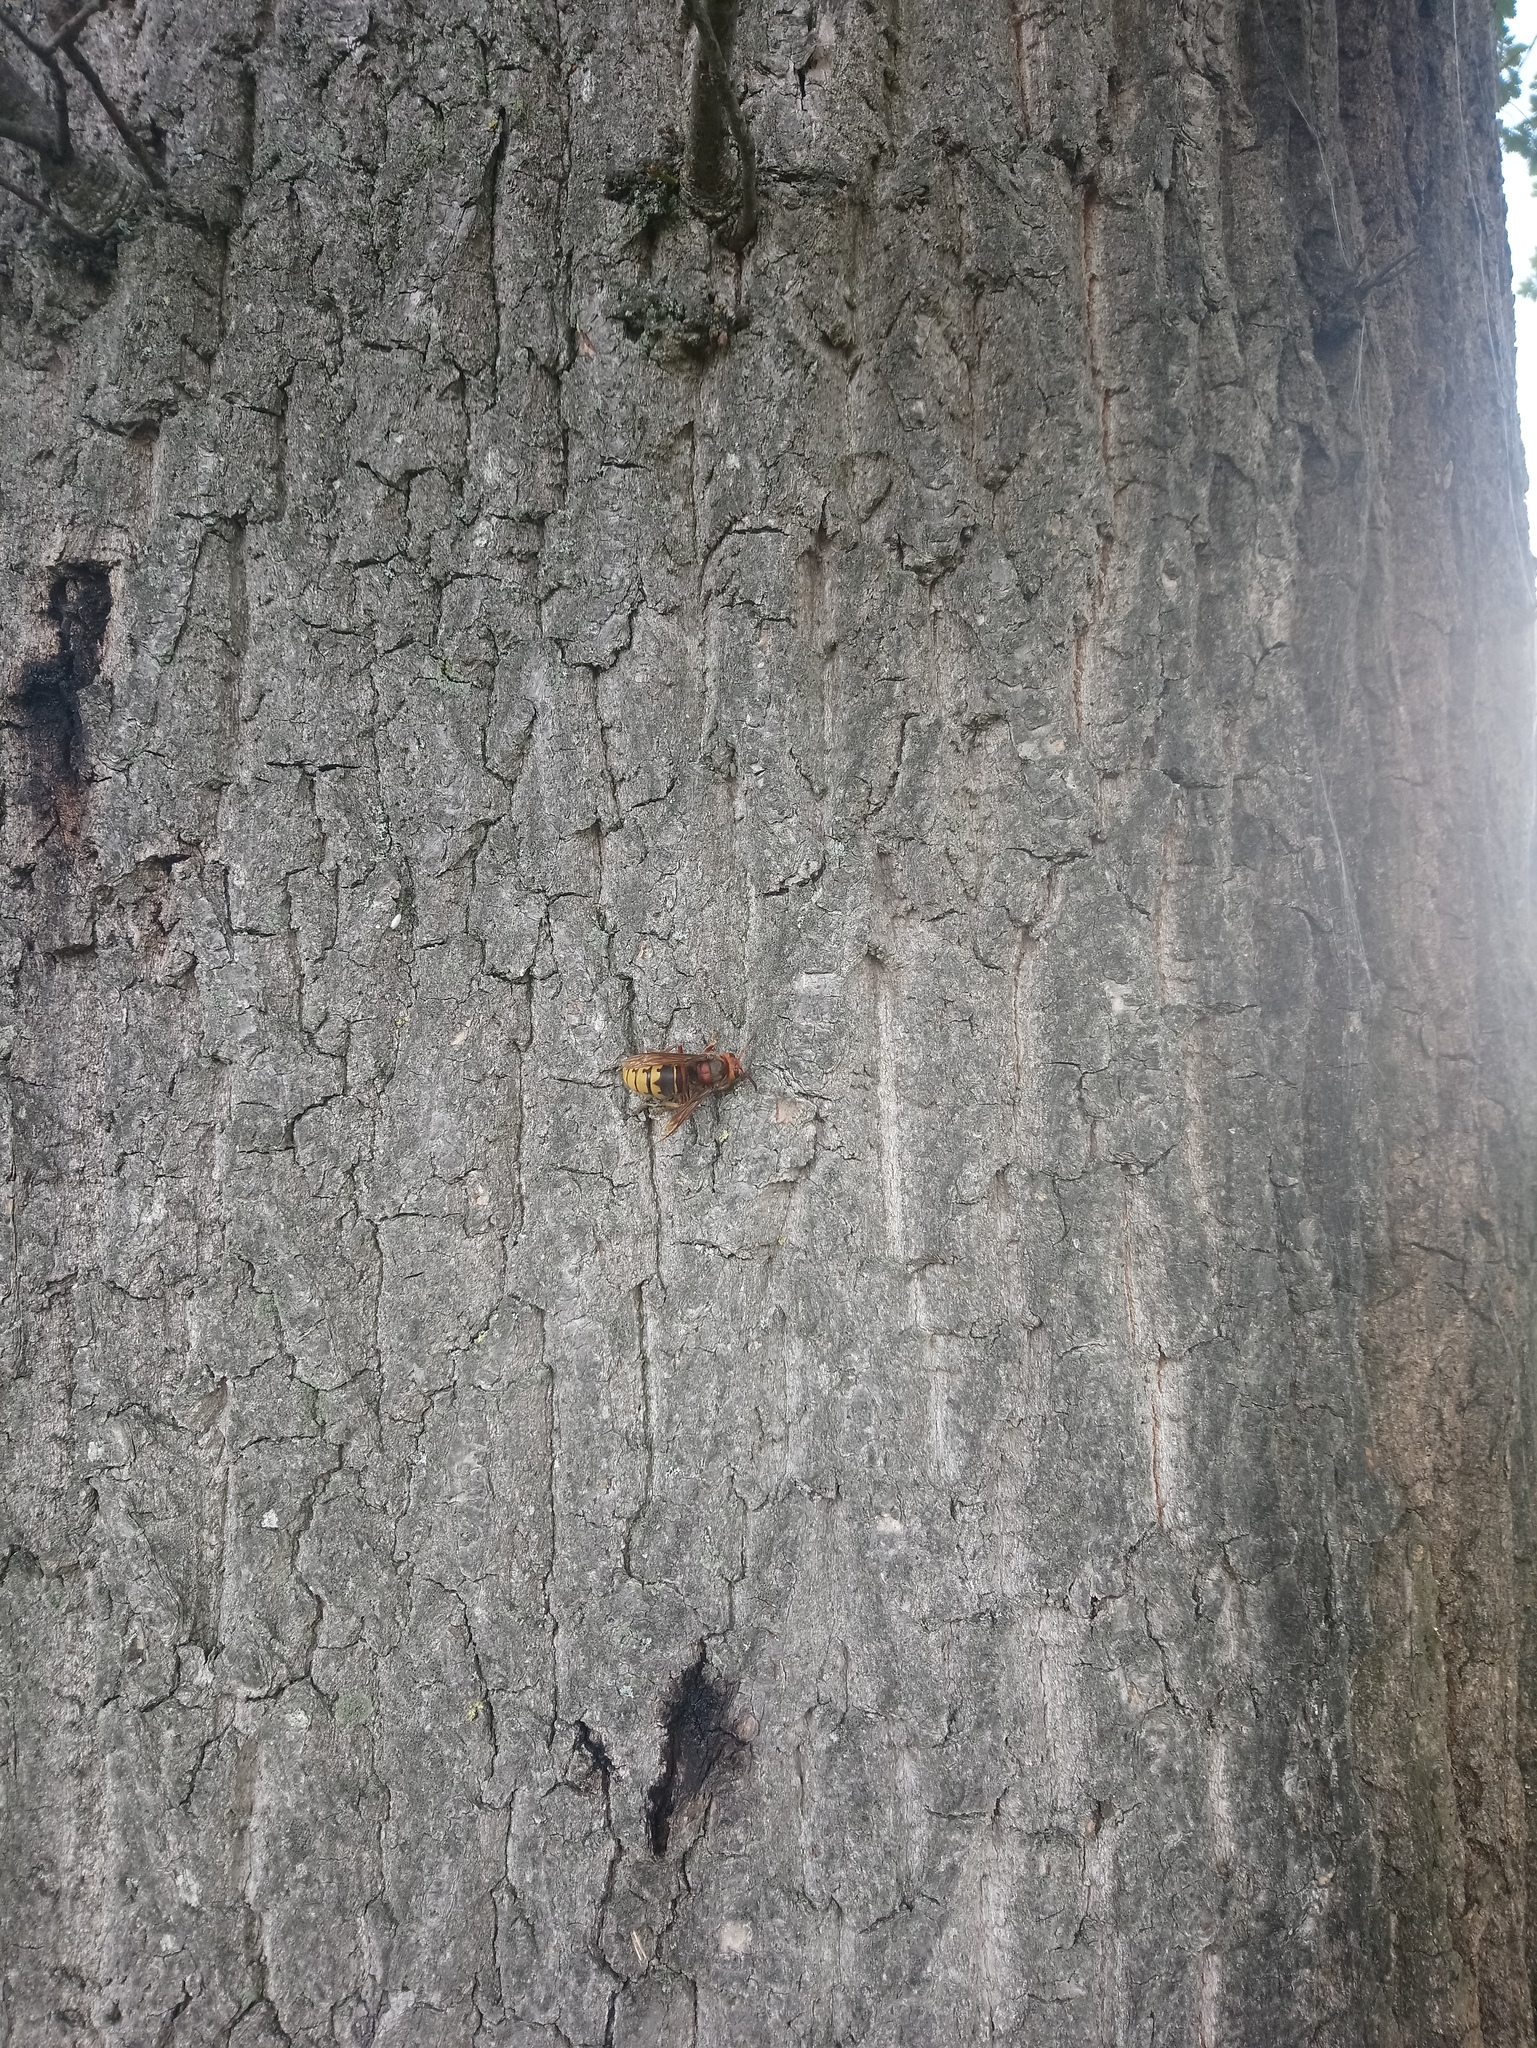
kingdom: Animalia
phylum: Arthropoda
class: Insecta
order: Hymenoptera
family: Vespidae
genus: Vespa
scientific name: Vespa crabro
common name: Hornet
